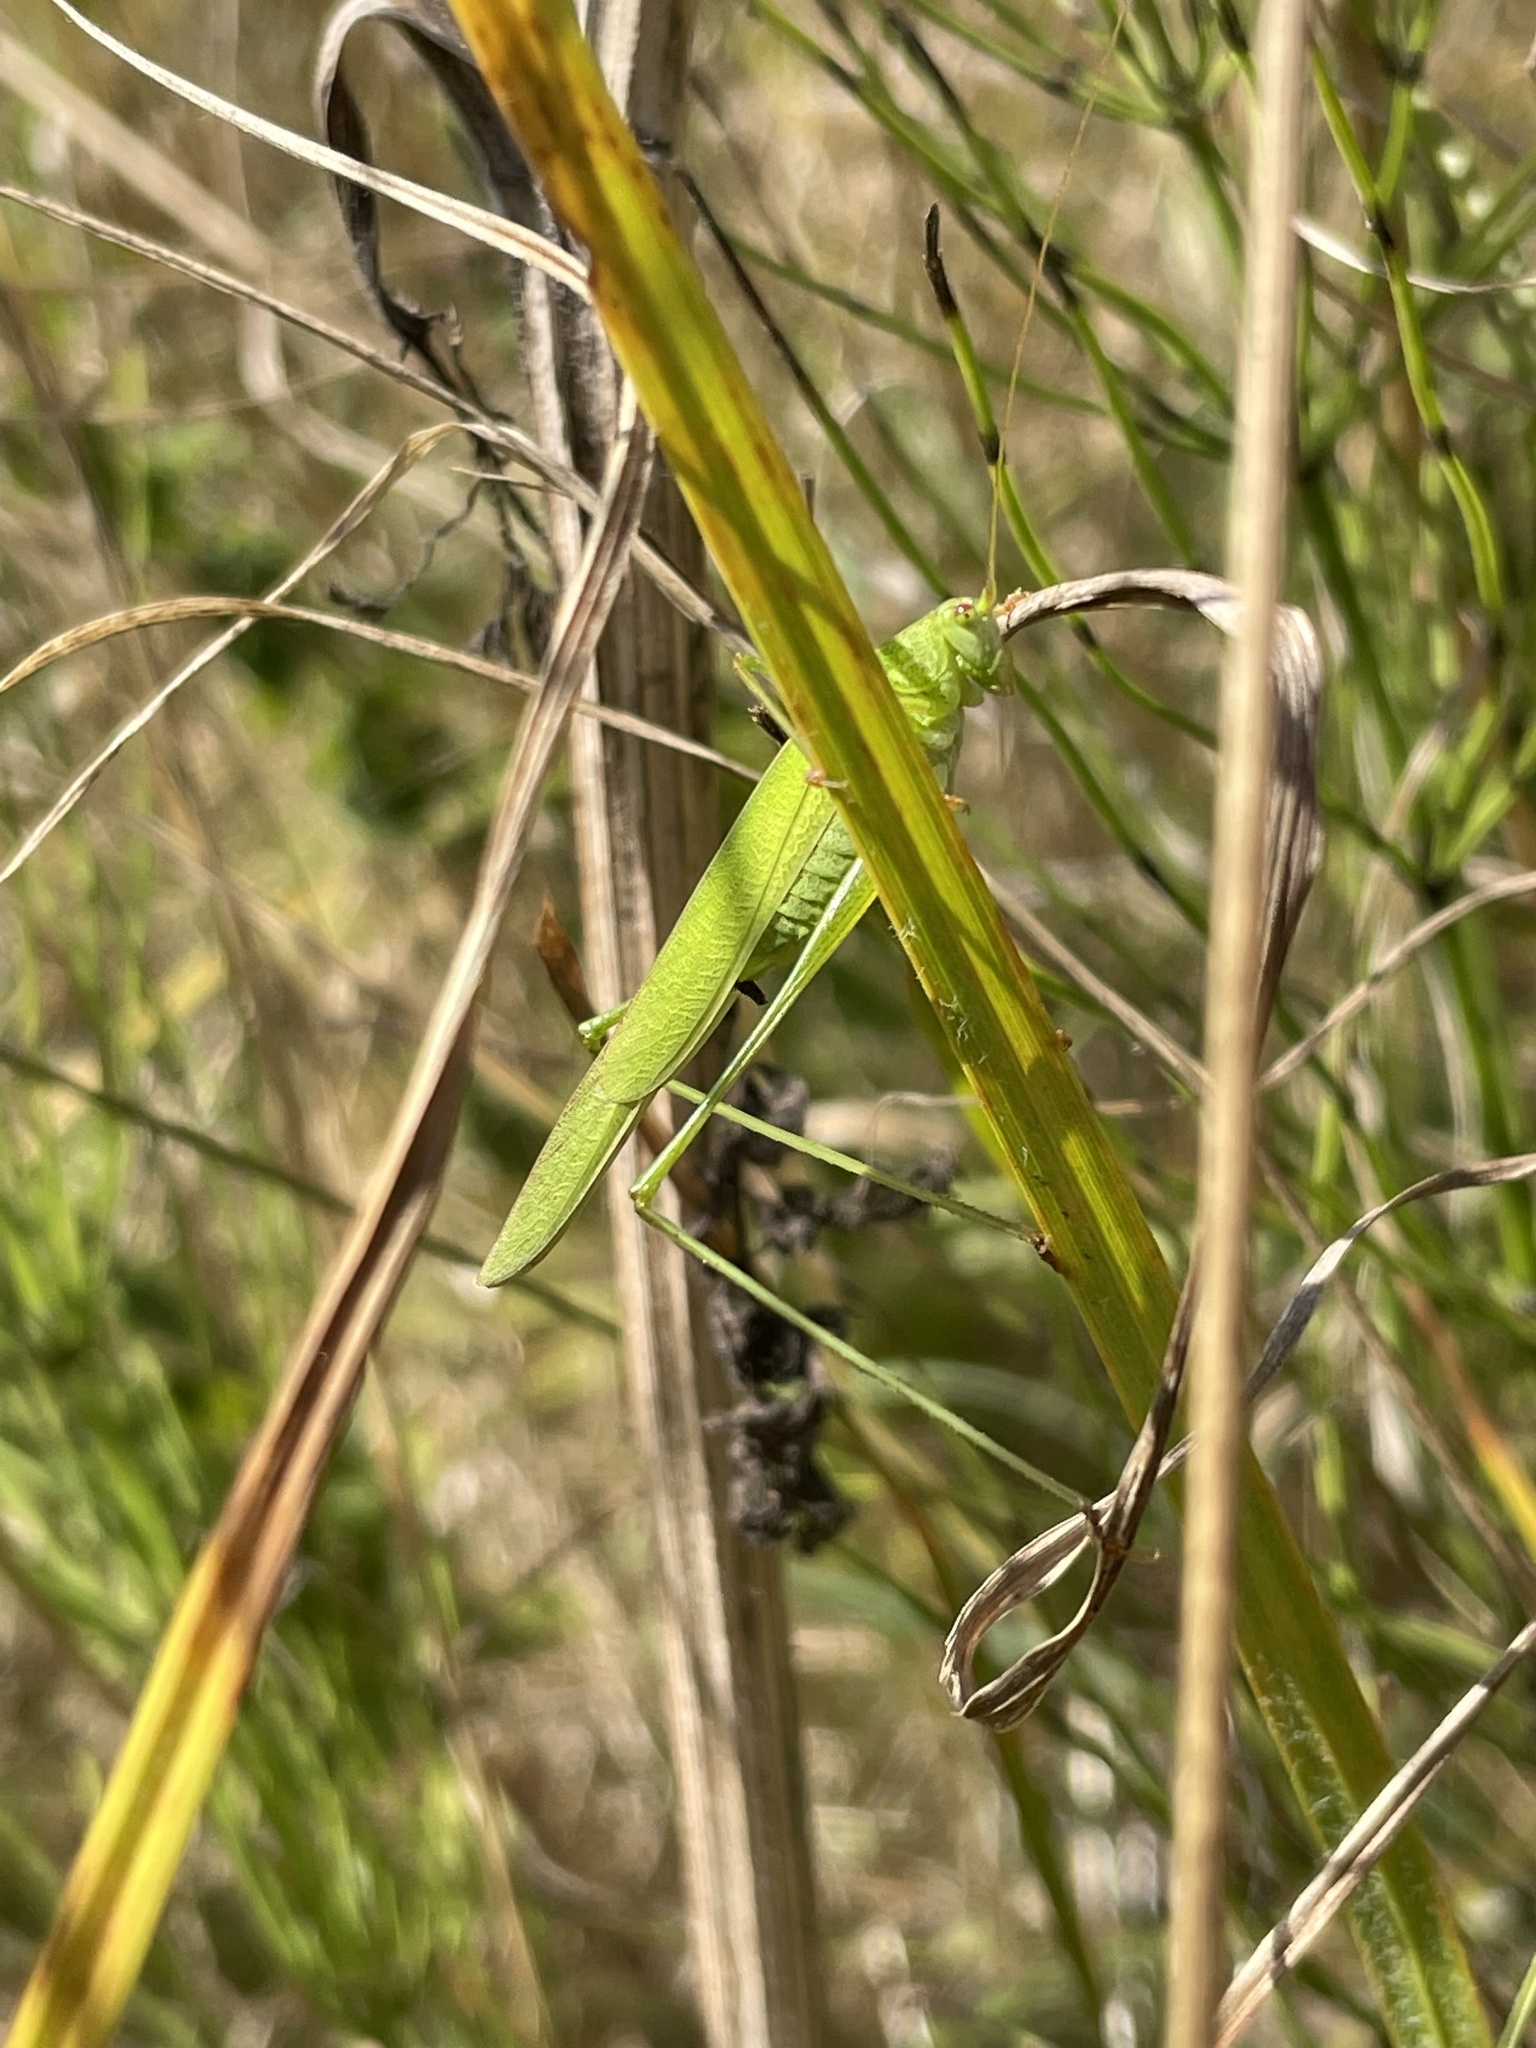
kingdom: Animalia
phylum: Arthropoda
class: Insecta
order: Orthoptera
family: Tettigoniidae
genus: Phaneroptera
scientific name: Phaneroptera falcata
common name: Sickle-bearing bush-cricket
